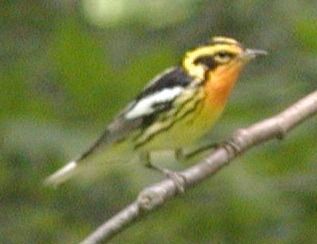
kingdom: Animalia
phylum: Chordata
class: Aves
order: Passeriformes
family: Parulidae
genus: Setophaga
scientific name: Setophaga fusca
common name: Blackburnian warbler
